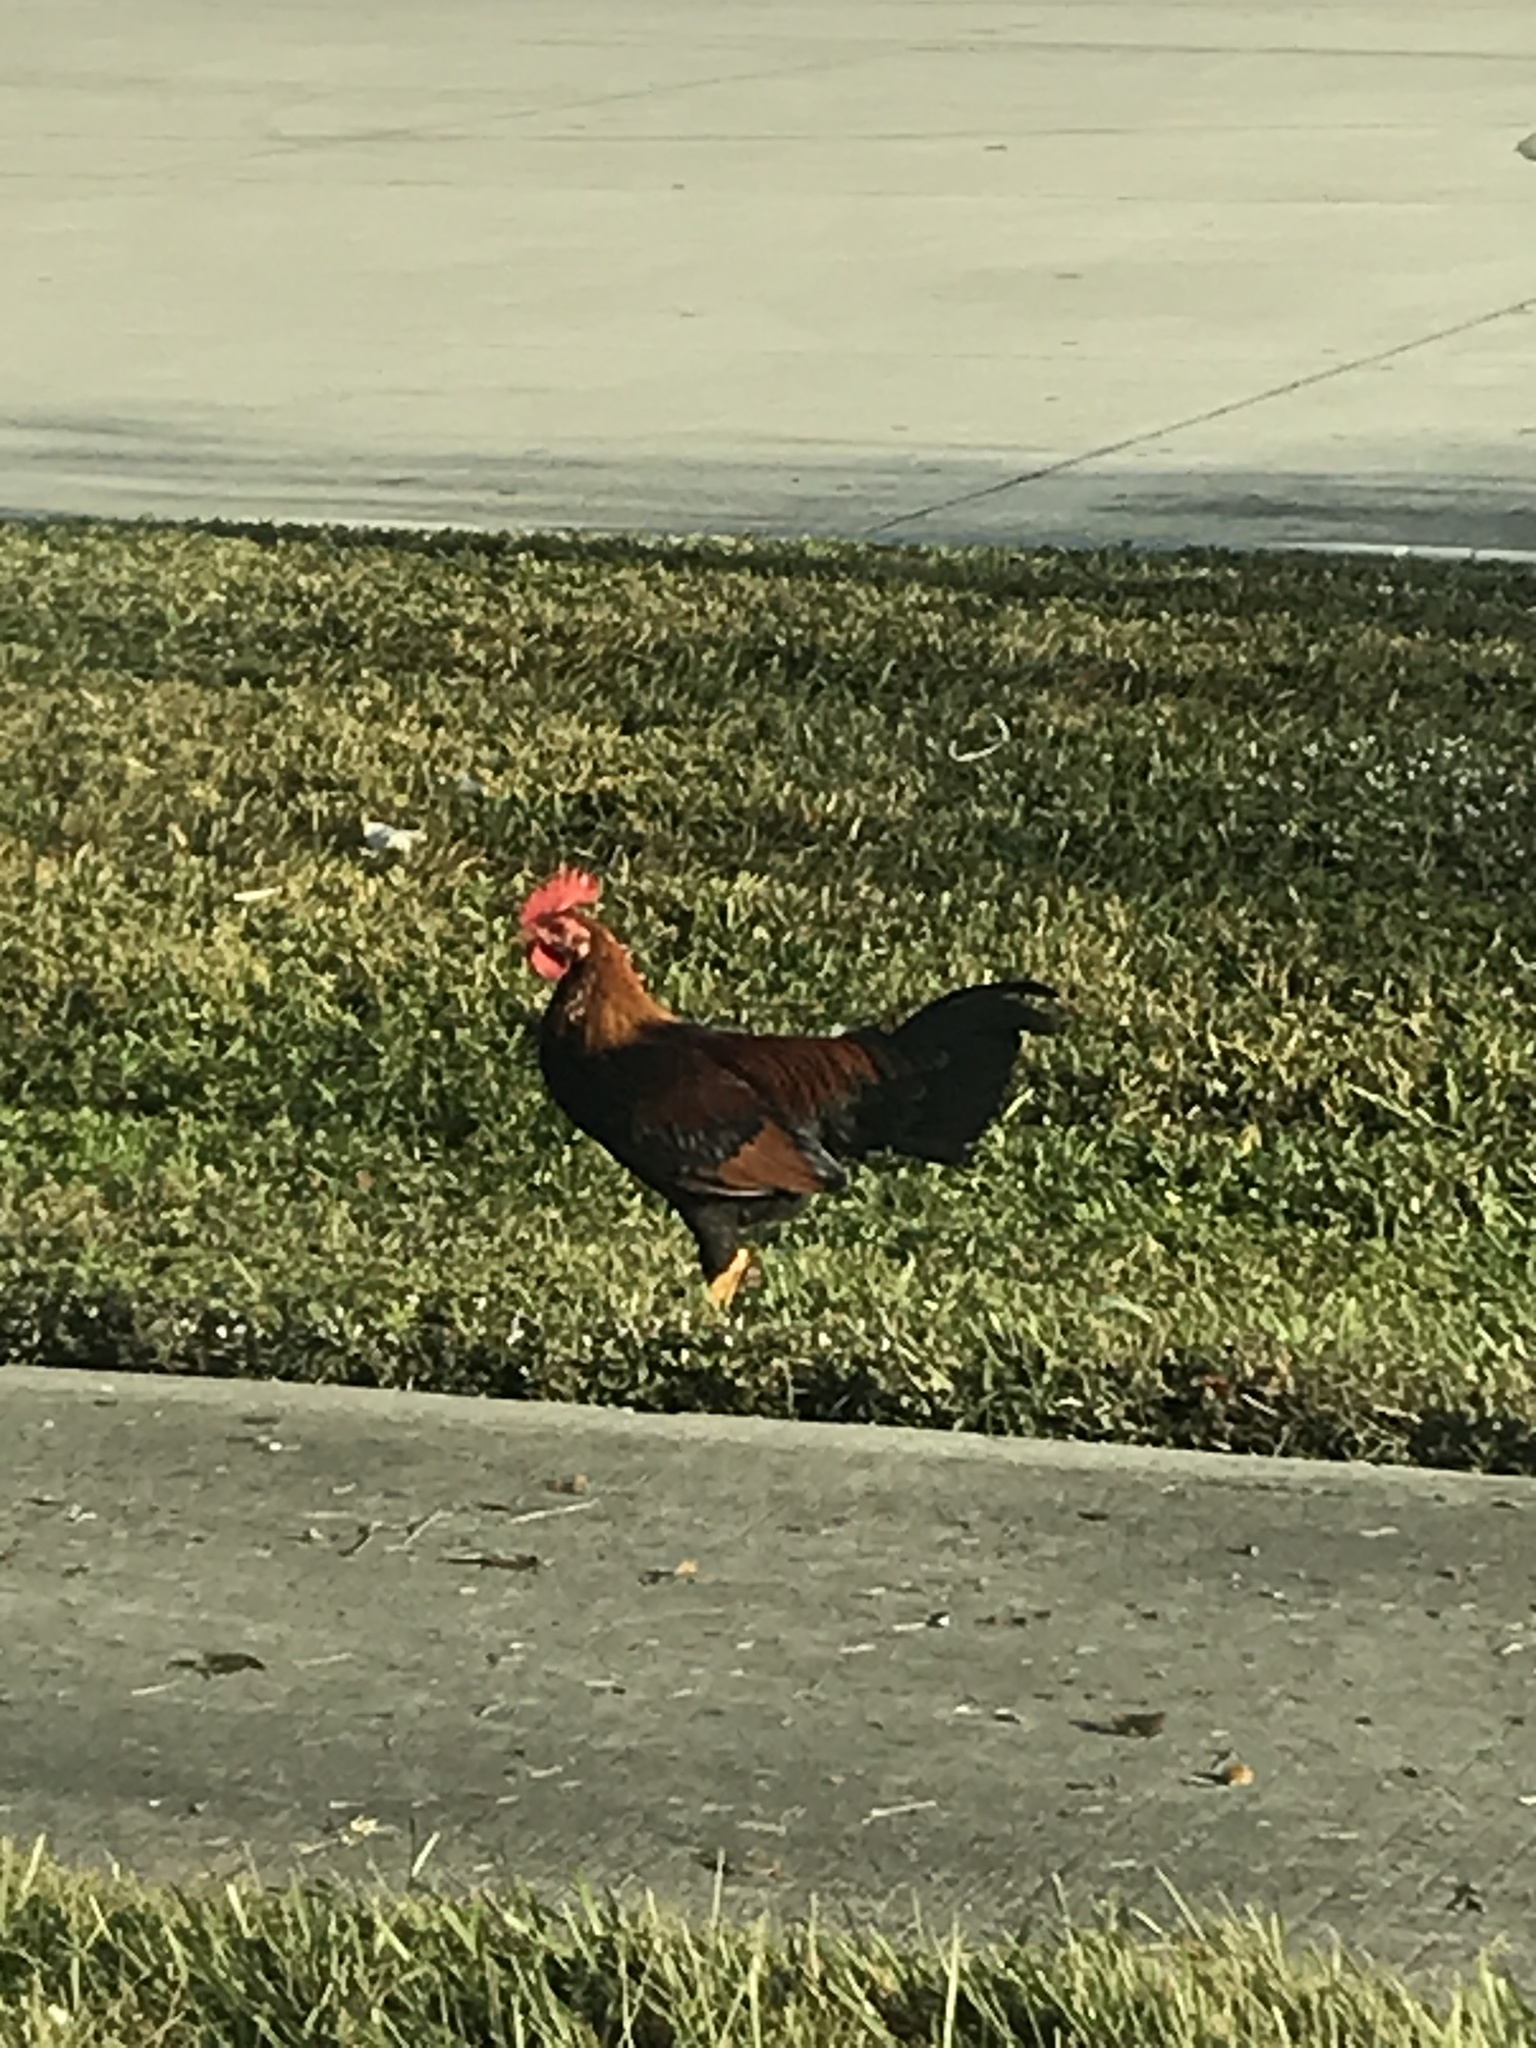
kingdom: Animalia
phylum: Chordata
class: Aves
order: Galliformes
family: Phasianidae
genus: Gallus
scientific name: Gallus gallus
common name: Red junglefowl
